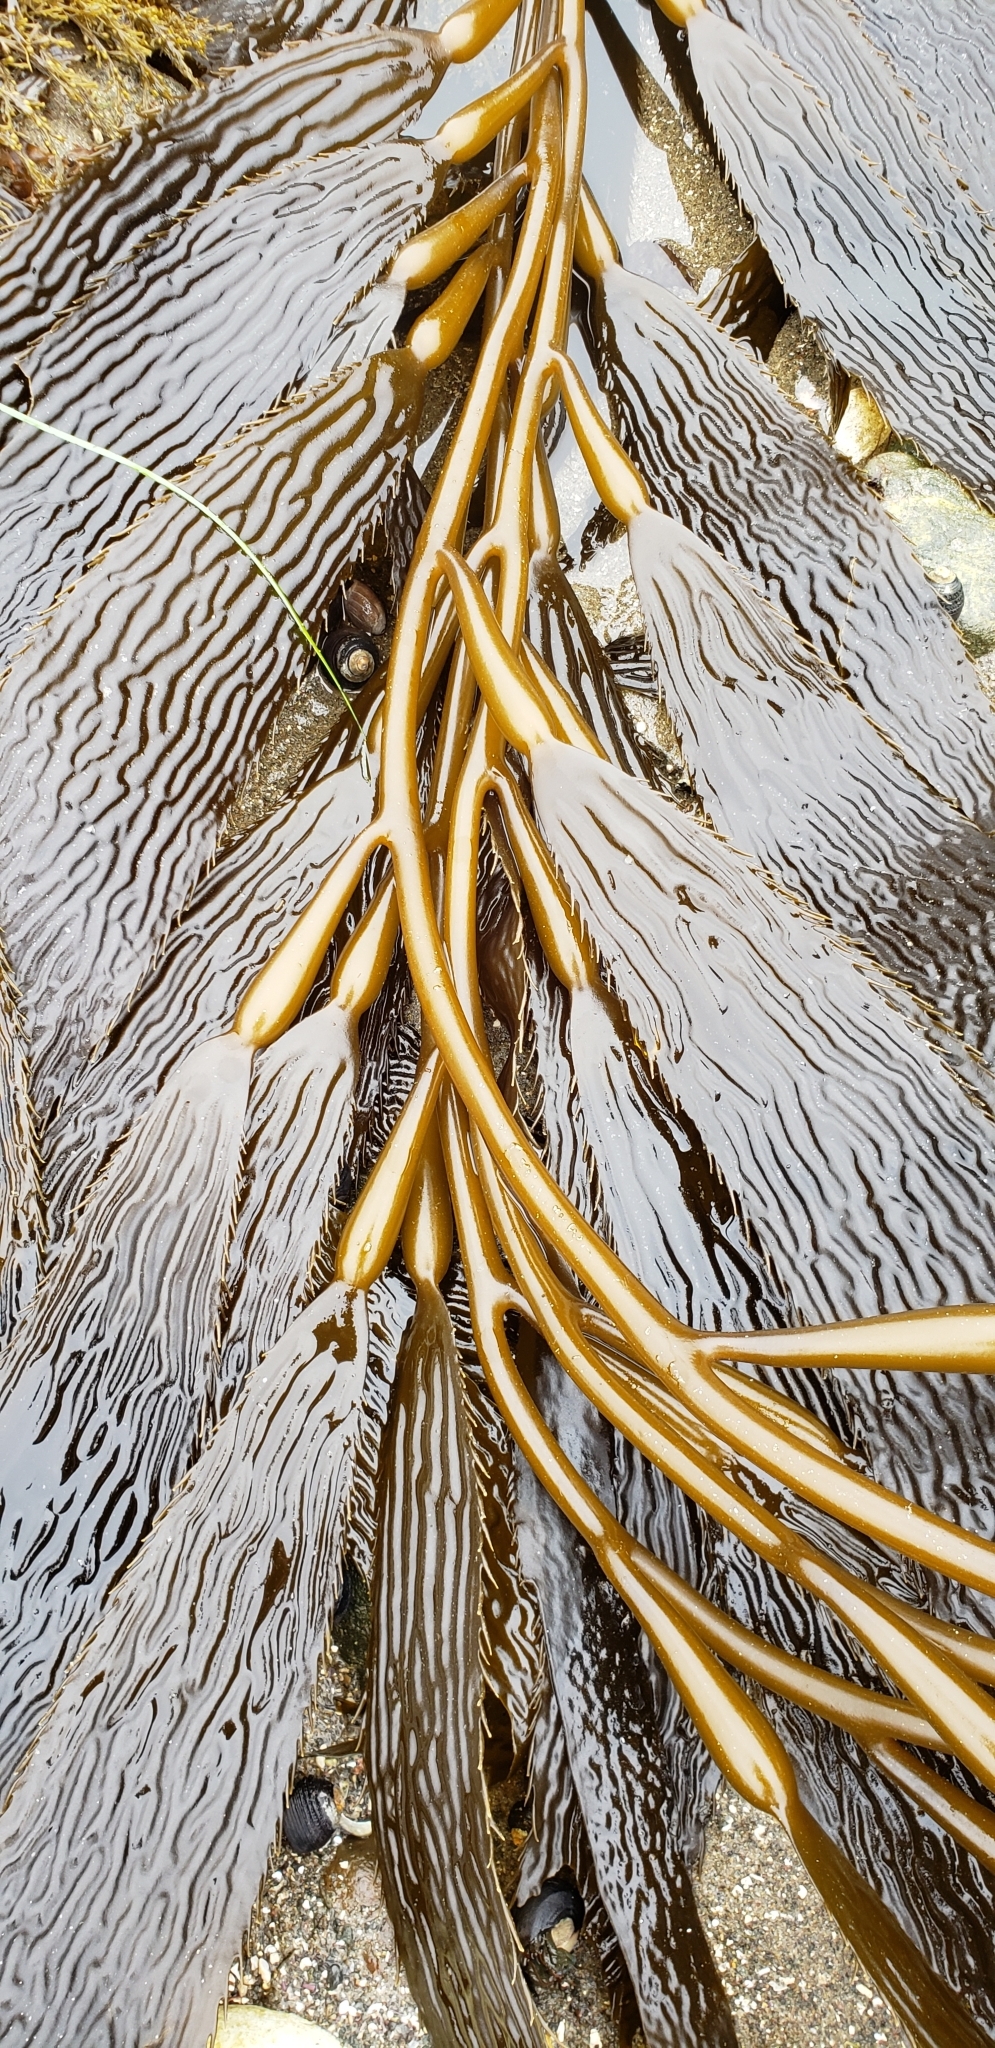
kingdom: Chromista
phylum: Ochrophyta
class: Phaeophyceae
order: Laminariales
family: Laminariaceae
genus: Macrocystis
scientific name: Macrocystis pyrifera
